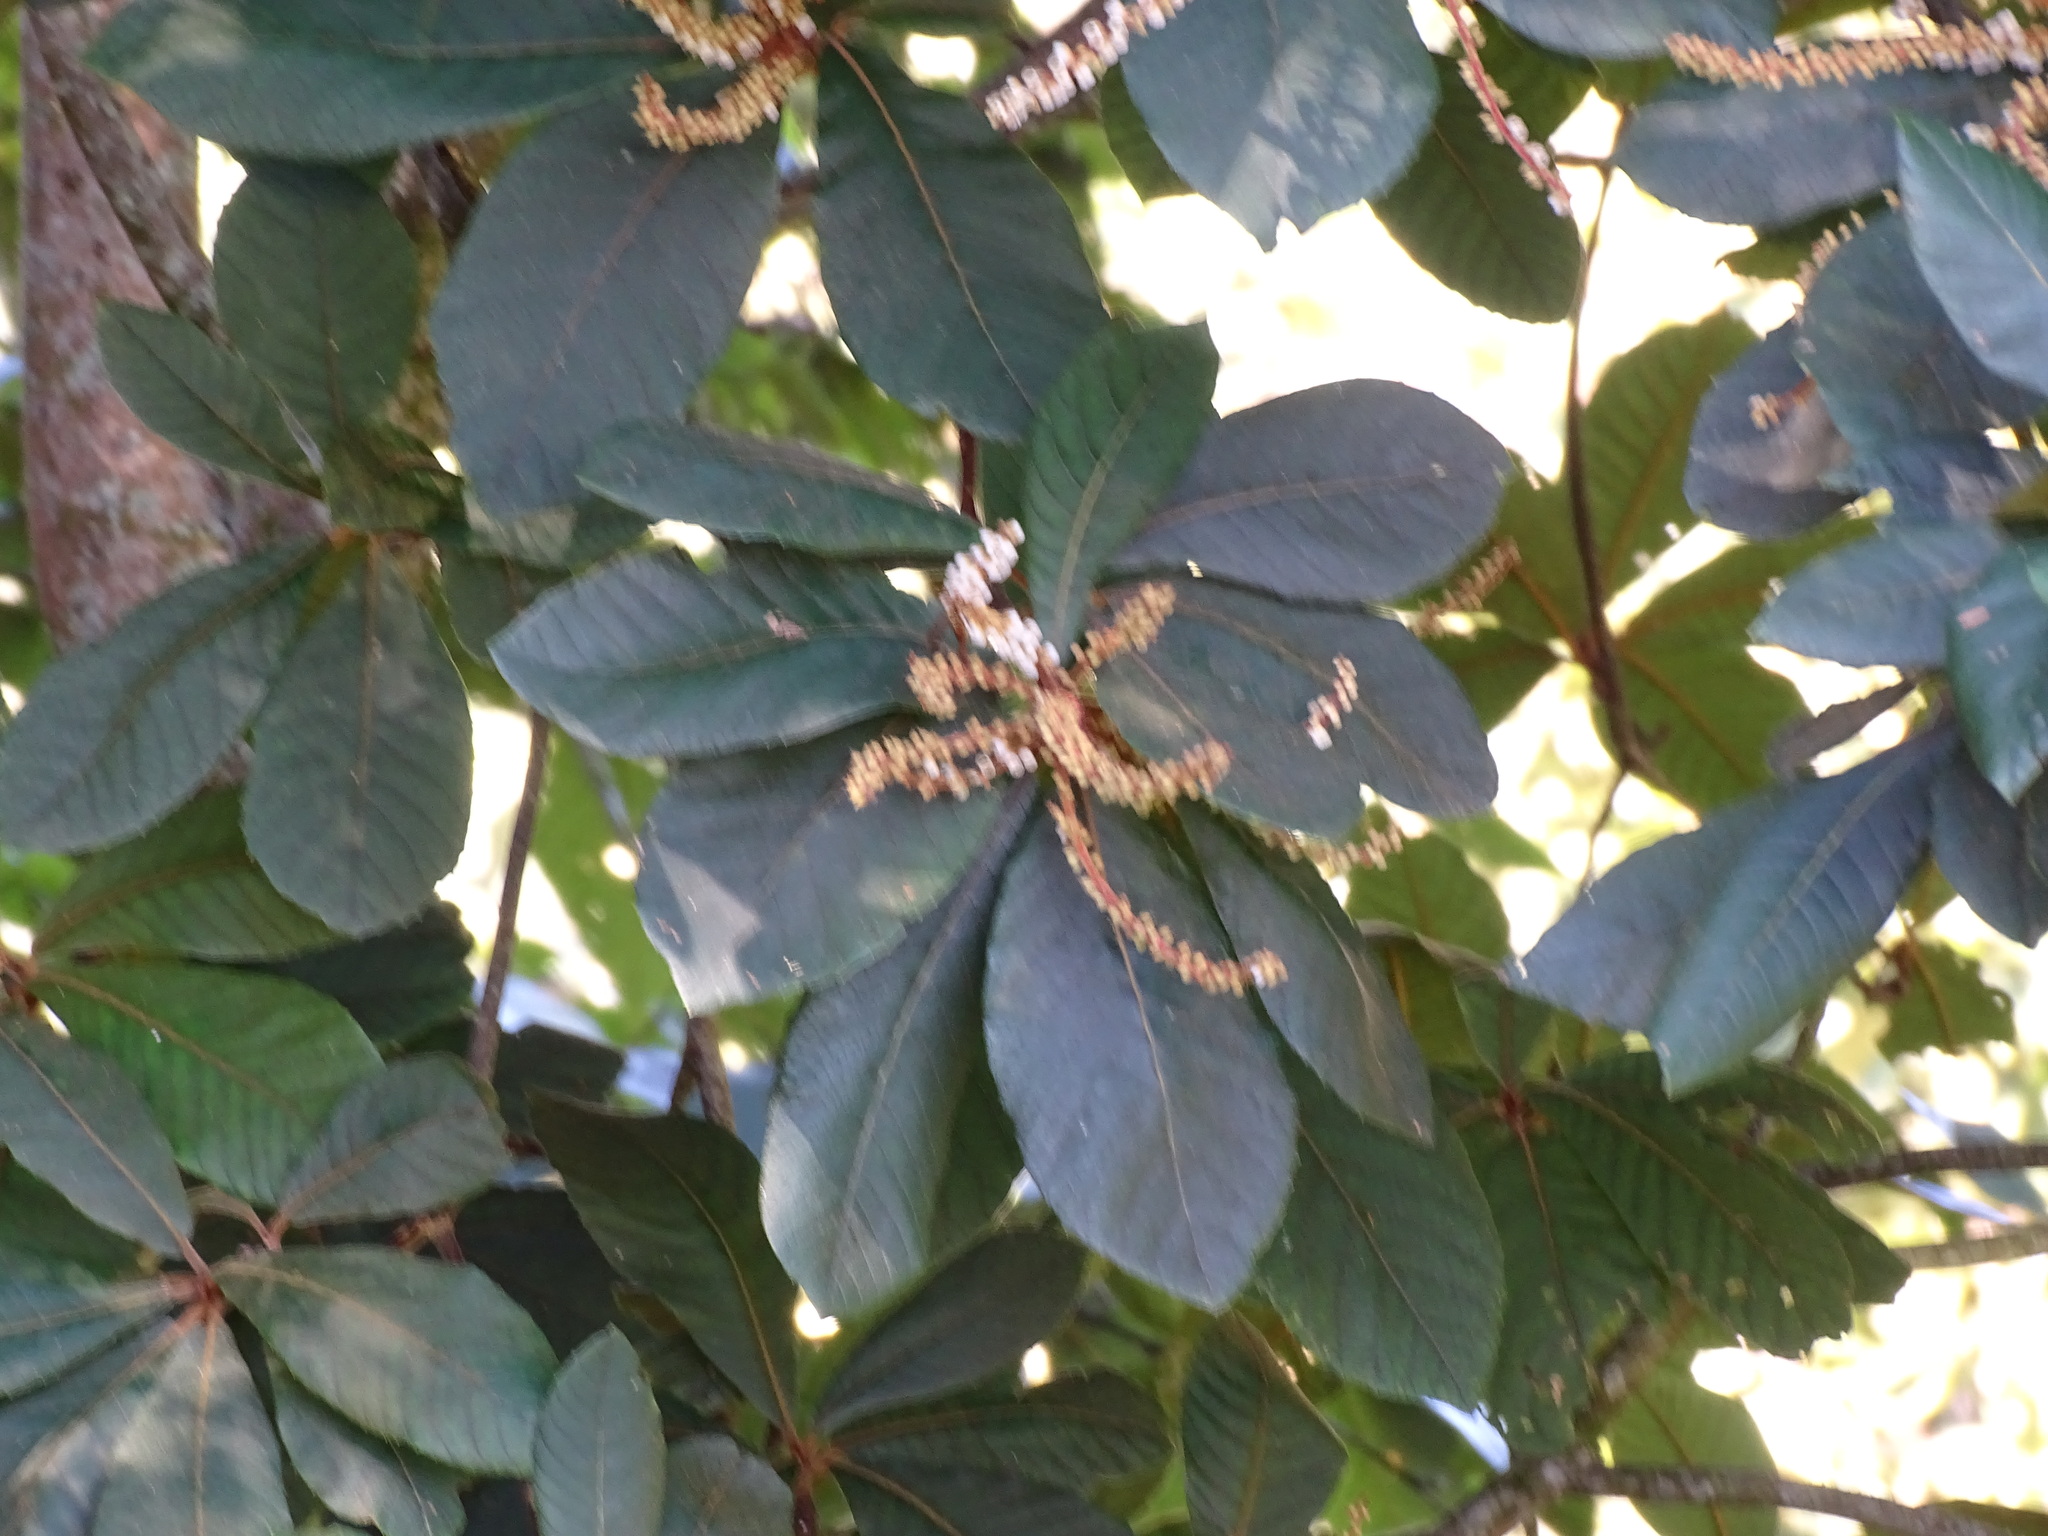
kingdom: Plantae
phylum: Tracheophyta
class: Magnoliopsida
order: Ericales
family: Clethraceae
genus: Clethra
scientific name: Clethra mexicana
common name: Nance macho
